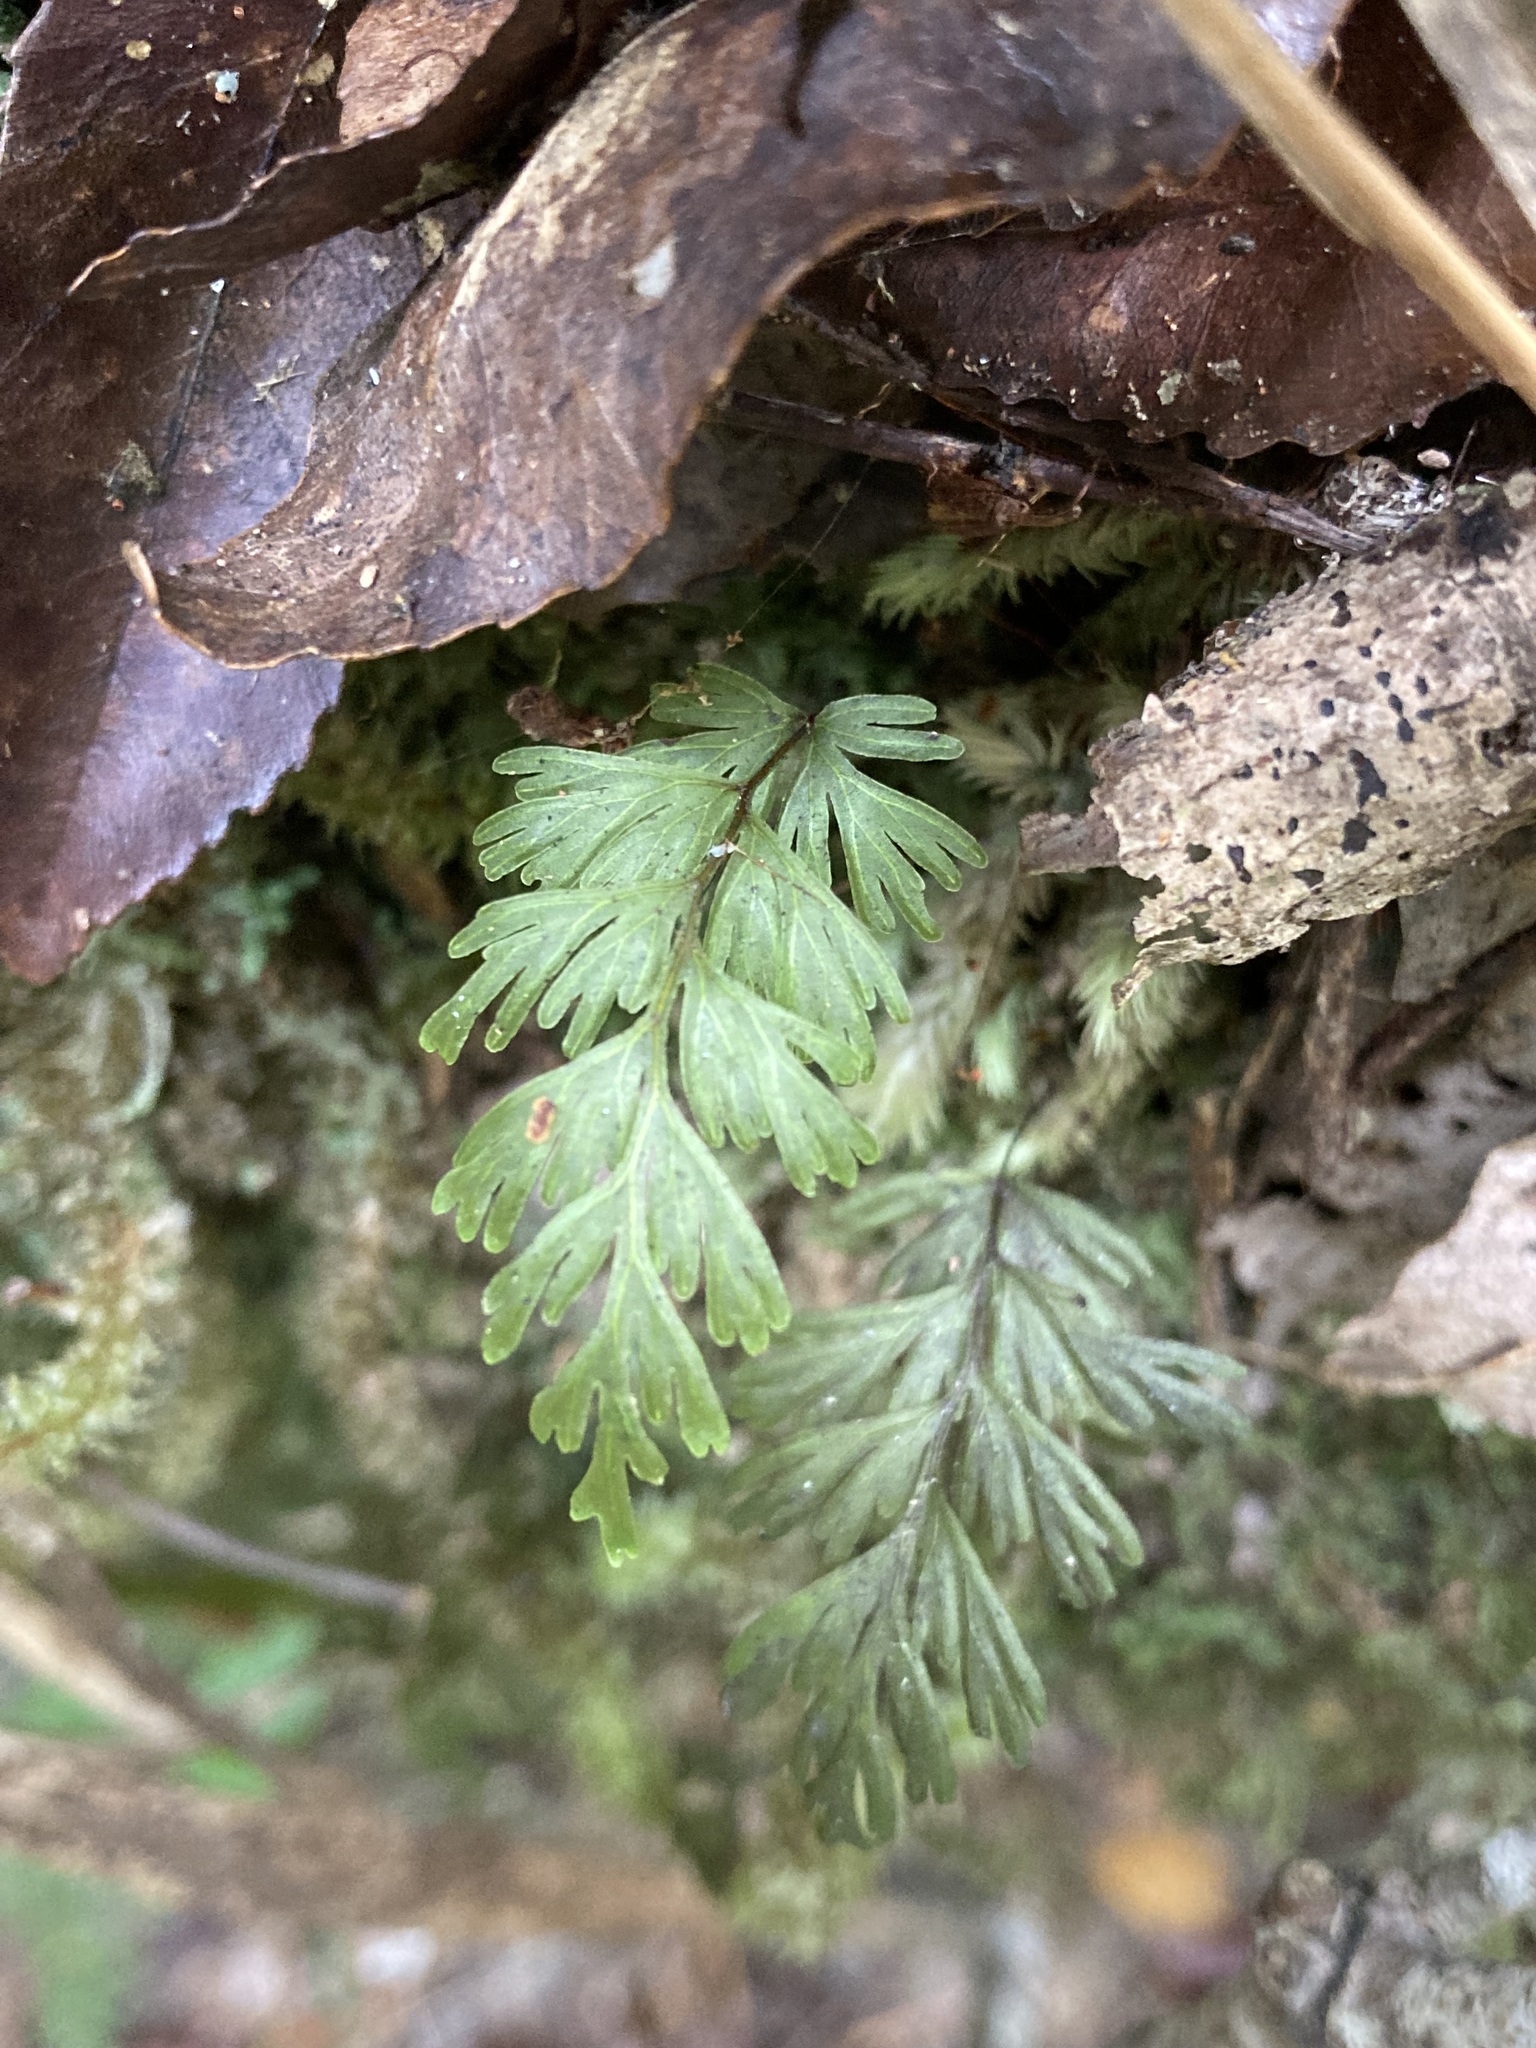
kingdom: Plantae
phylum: Tracheophyta
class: Polypodiopsida
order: Hymenophyllales
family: Hymenophyllaceae
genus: Hymenophyllum
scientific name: Hymenophyllum demissum
